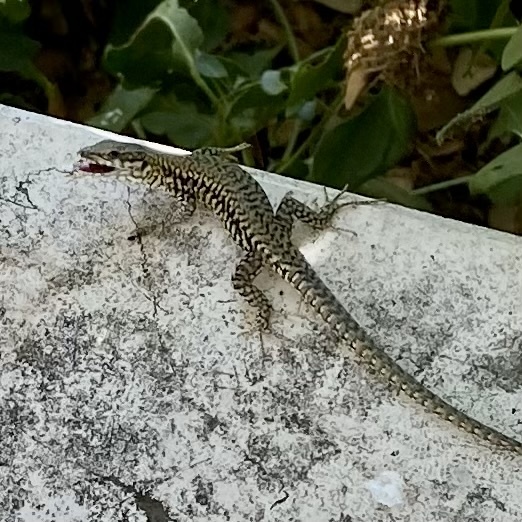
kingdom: Animalia
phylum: Chordata
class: Squamata
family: Lacertidae
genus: Podarcis
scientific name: Podarcis muralis
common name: Common wall lizard
